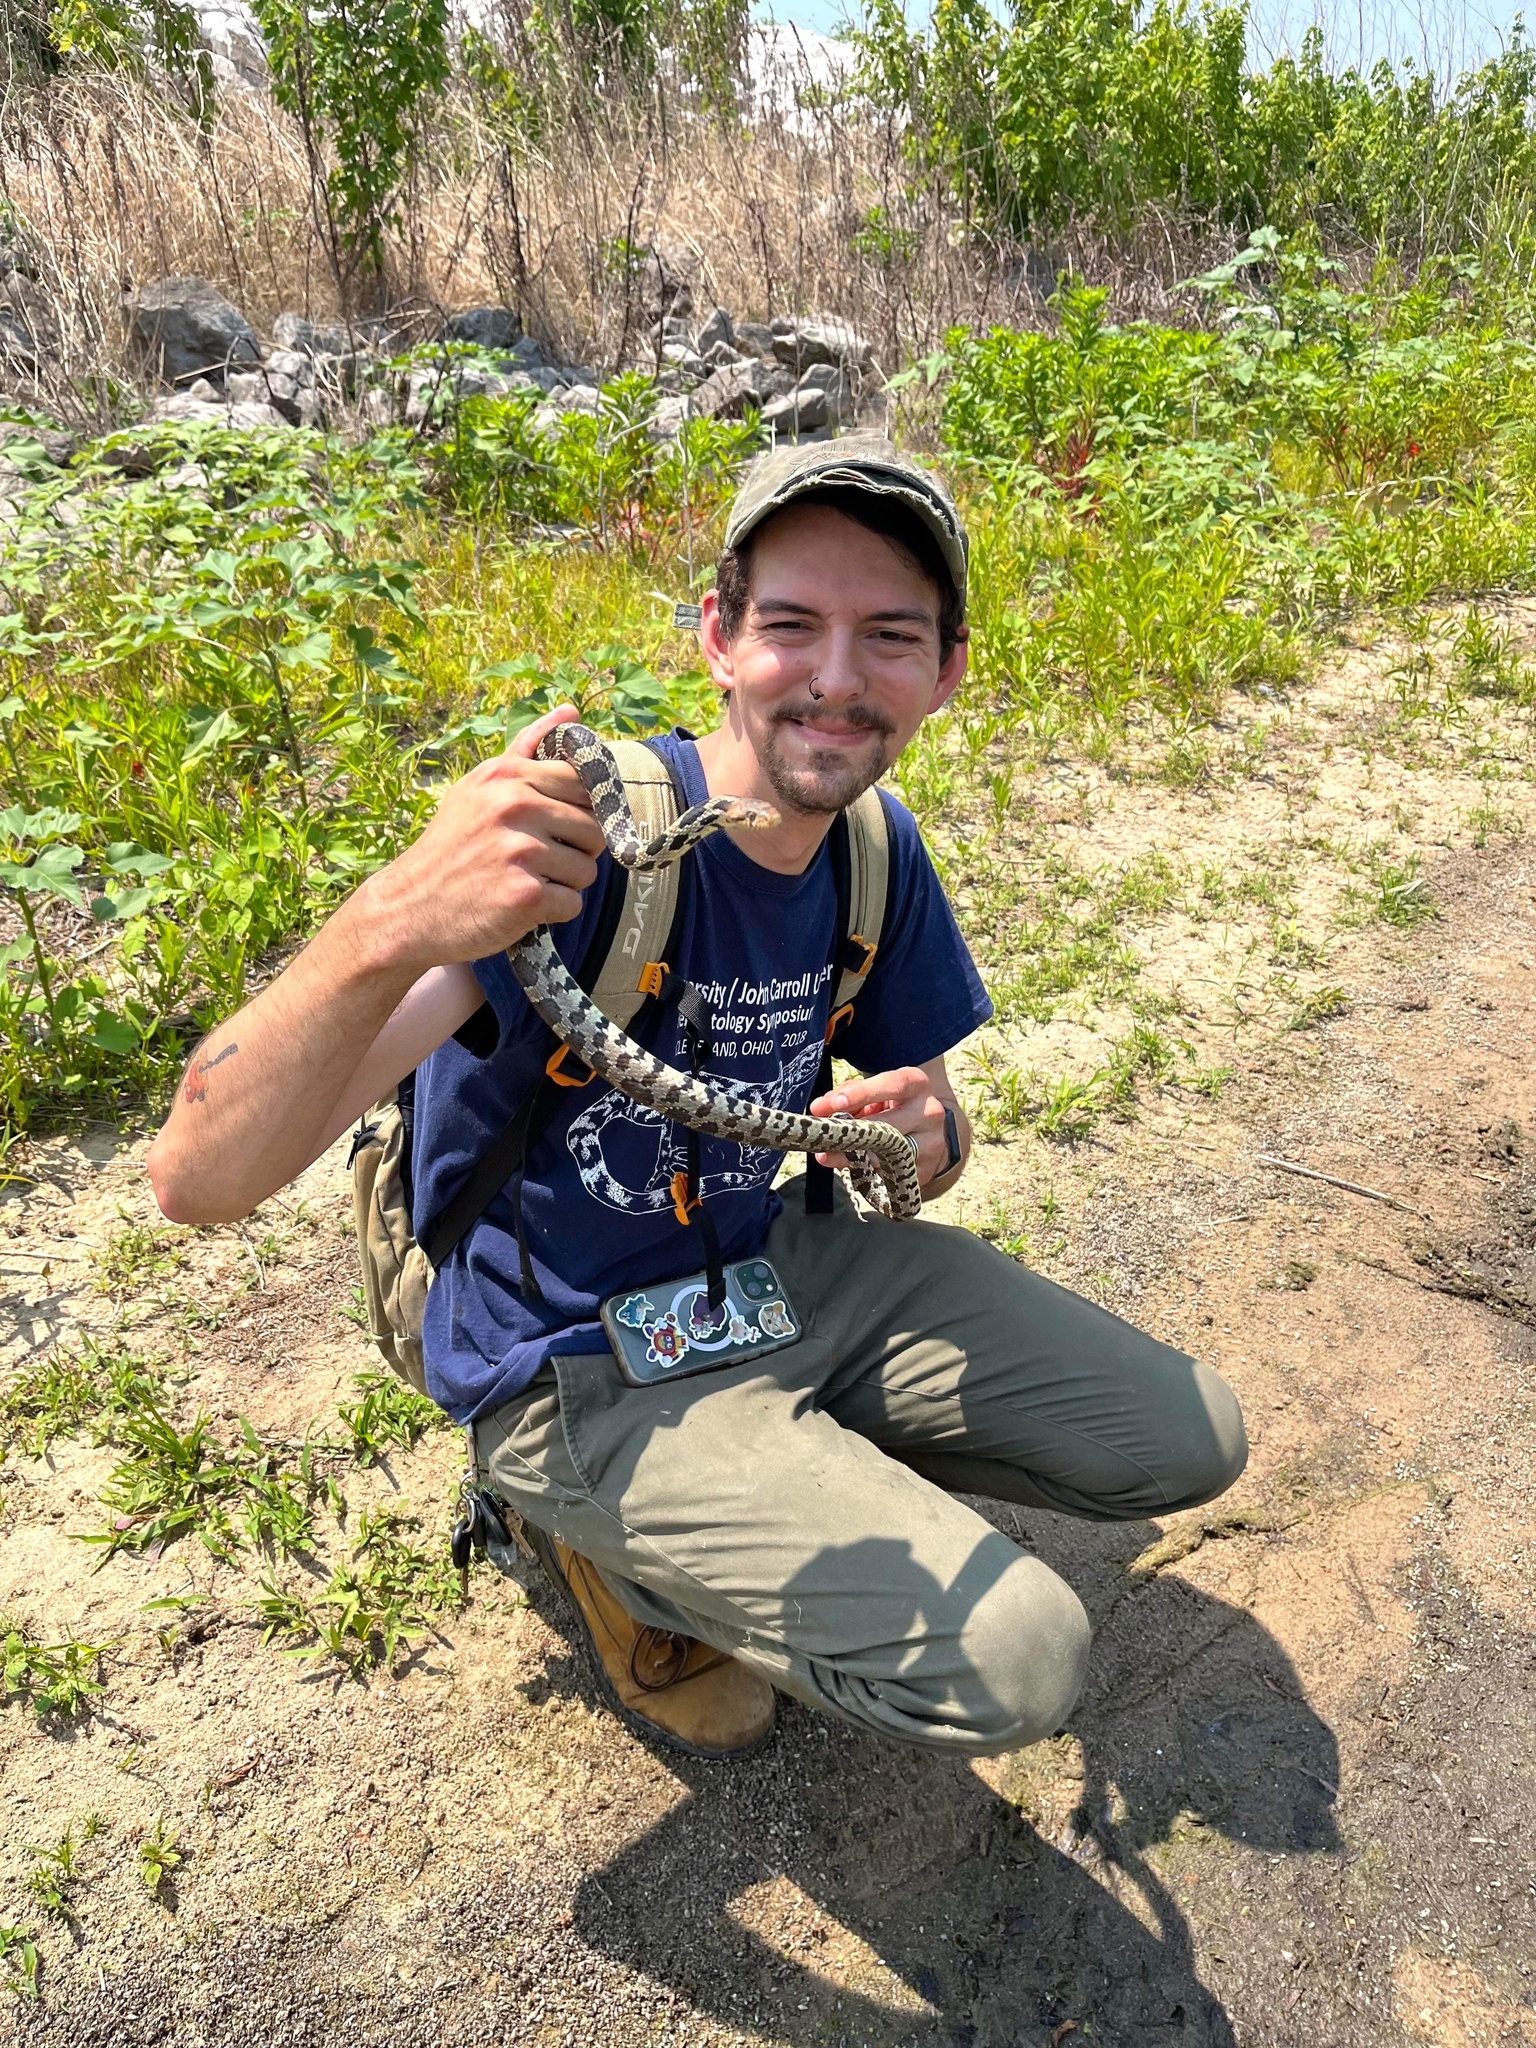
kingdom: Animalia
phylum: Chordata
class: Squamata
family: Colubridae
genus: Pantherophis
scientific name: Pantherophis vulpinus
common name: Eastern fox snake
